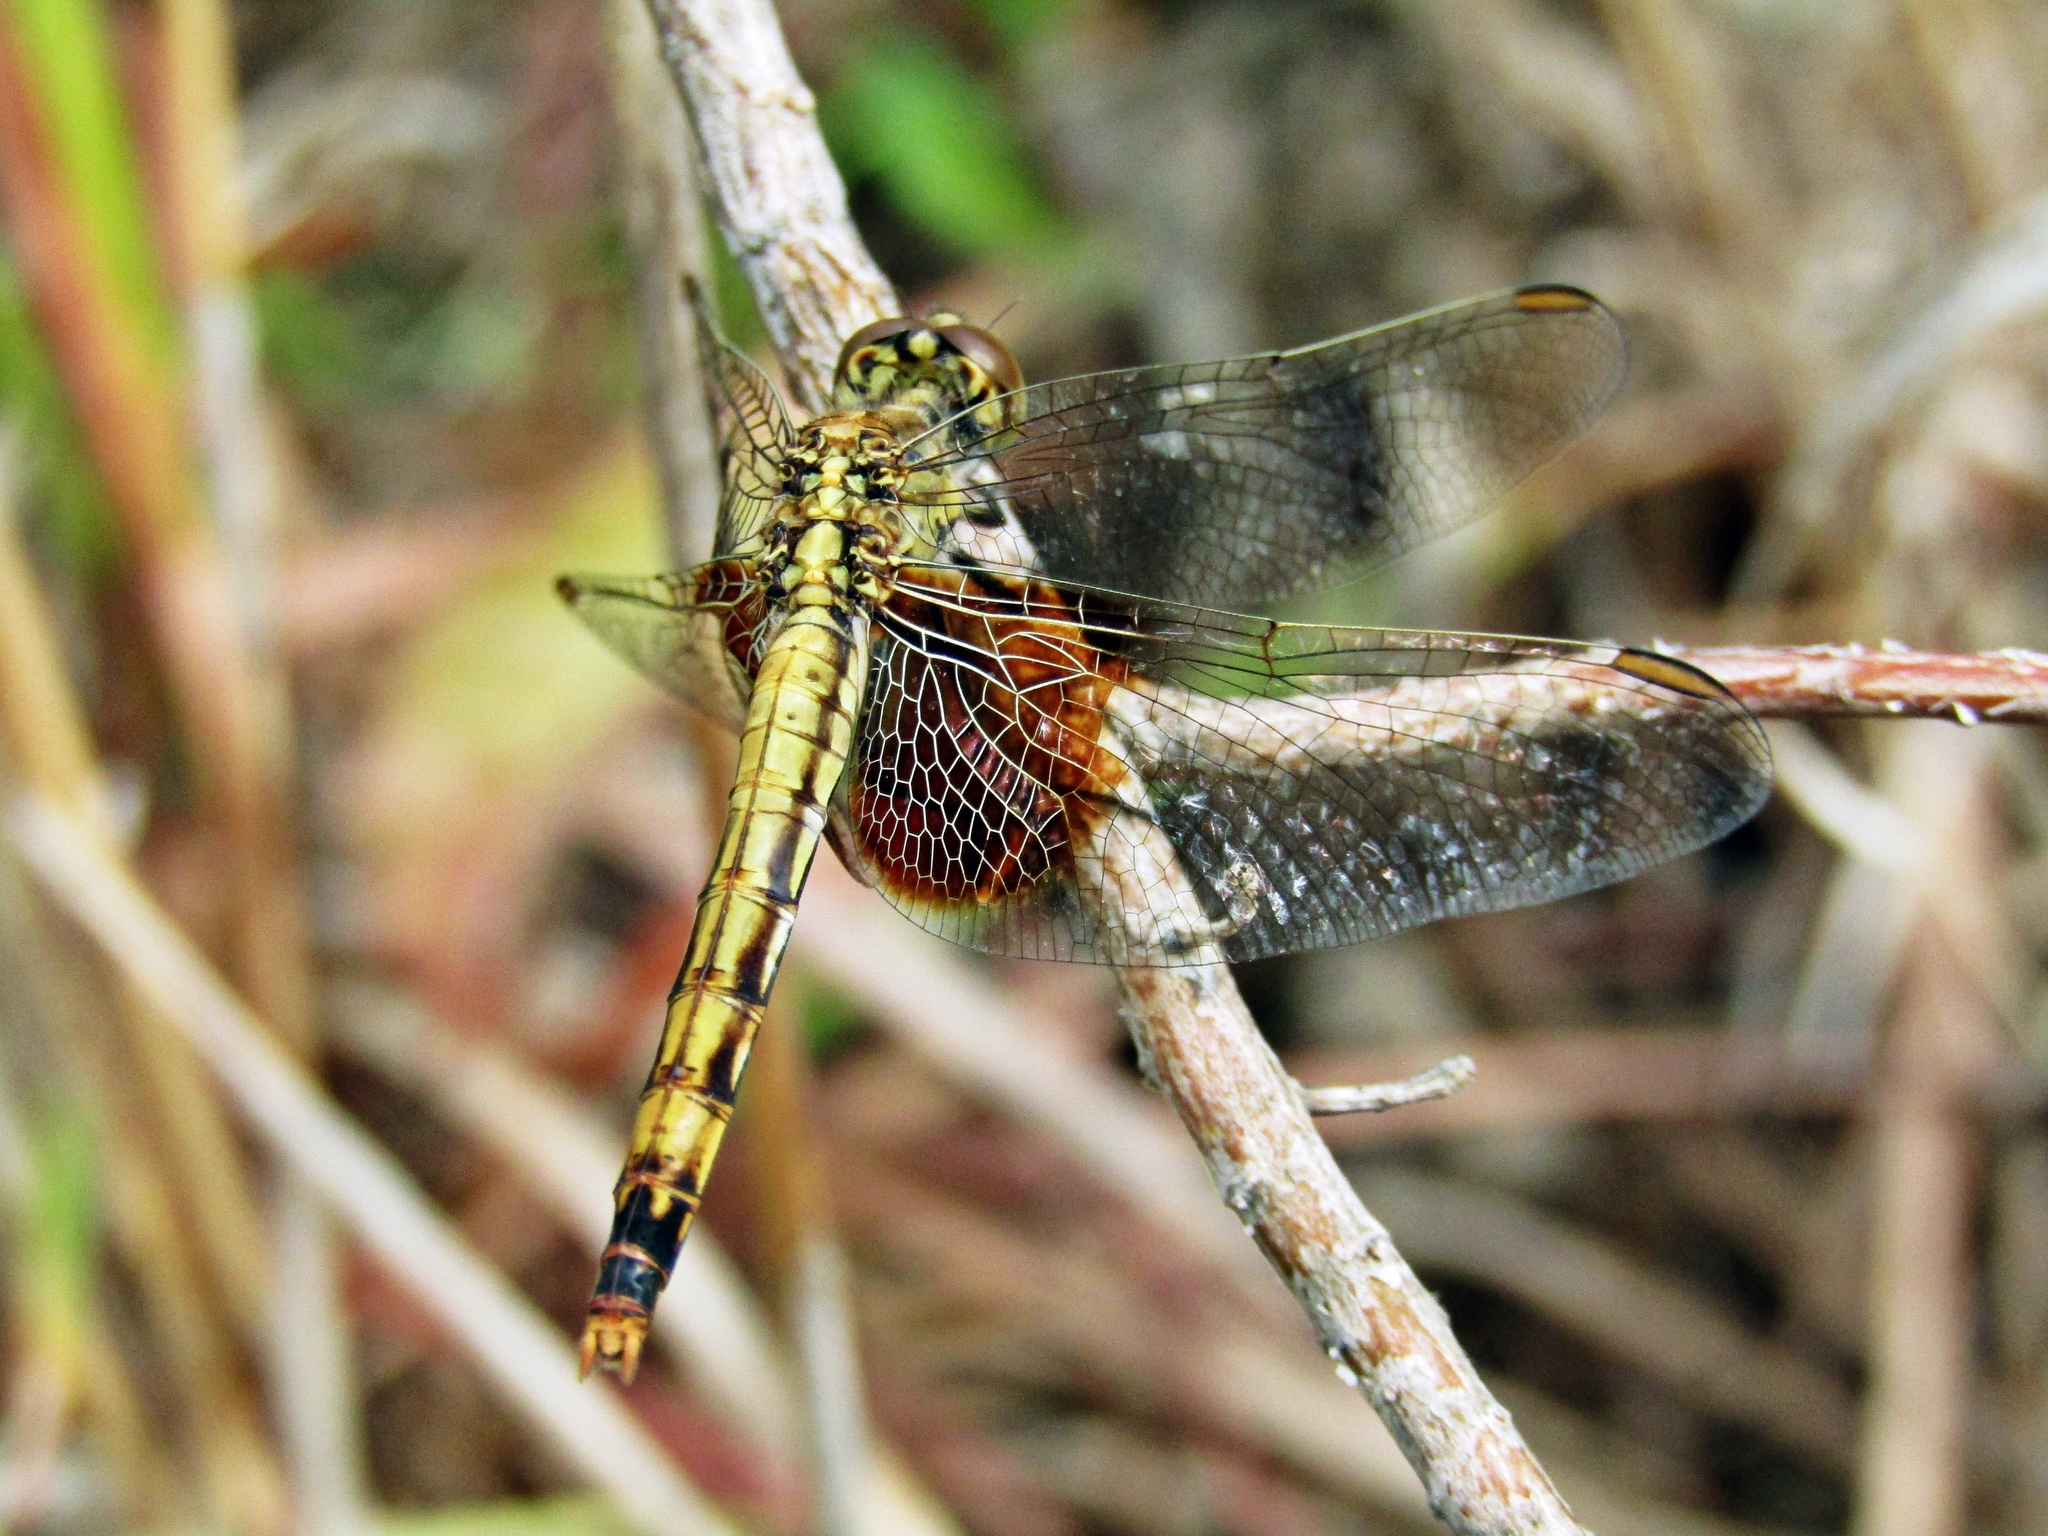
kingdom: Animalia
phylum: Arthropoda
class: Insecta
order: Odonata
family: Libellulidae
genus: Erythrodiplax
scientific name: Erythrodiplax corallina
